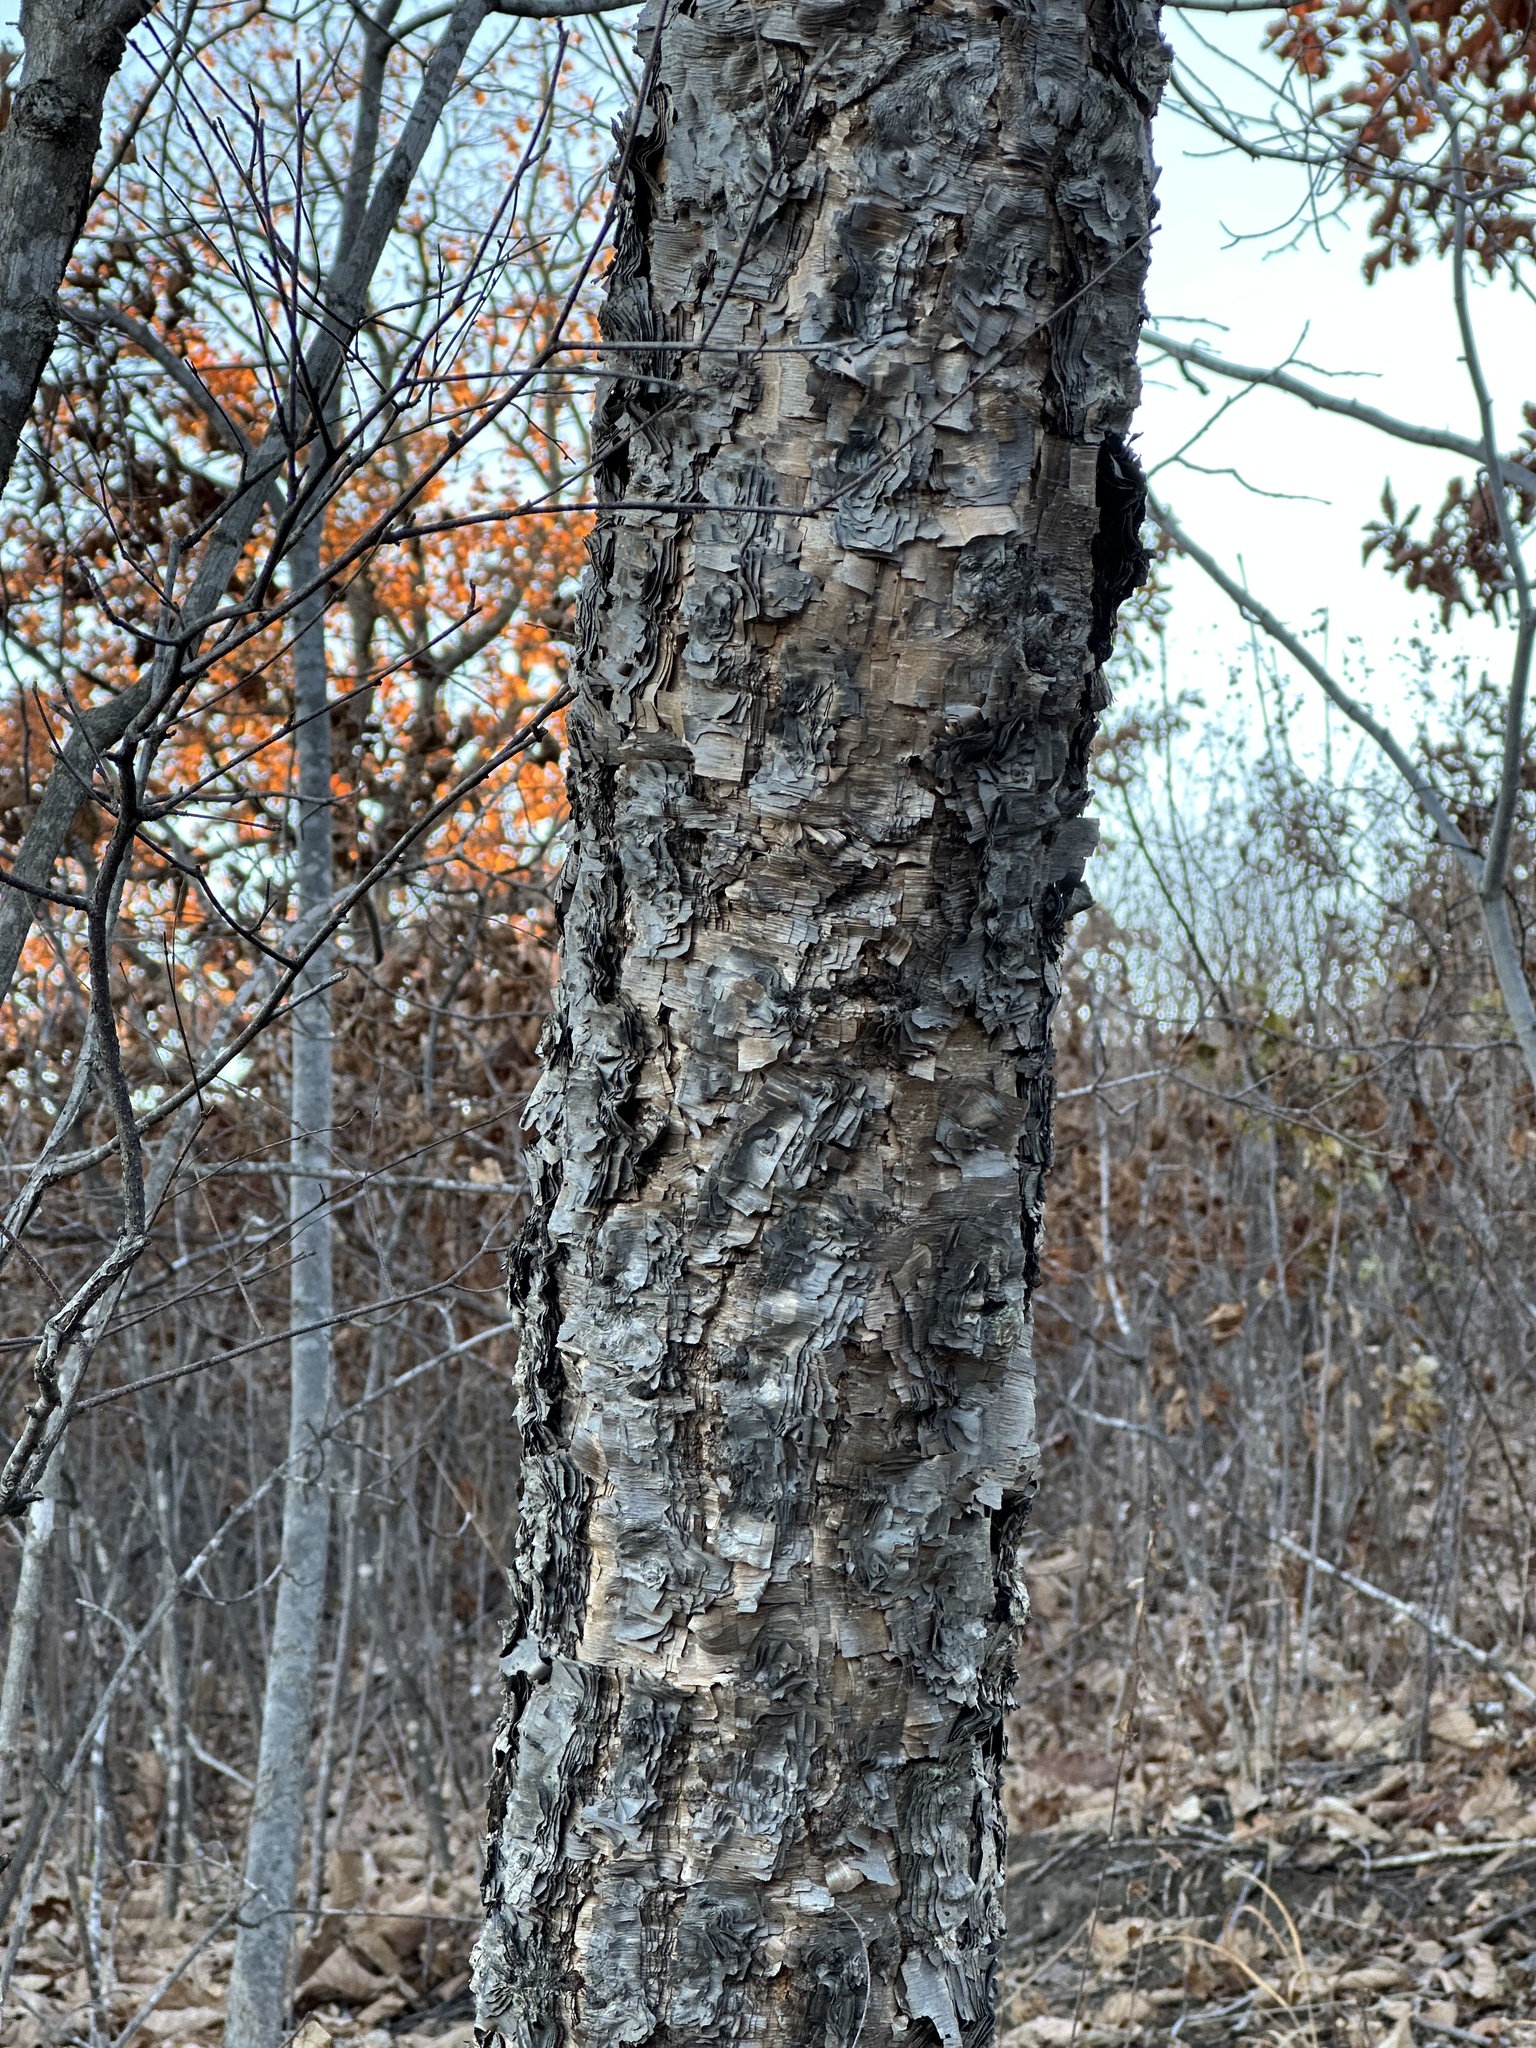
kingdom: Plantae
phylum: Tracheophyta
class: Magnoliopsida
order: Fagales
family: Betulaceae
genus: Betula
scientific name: Betula dauurica
